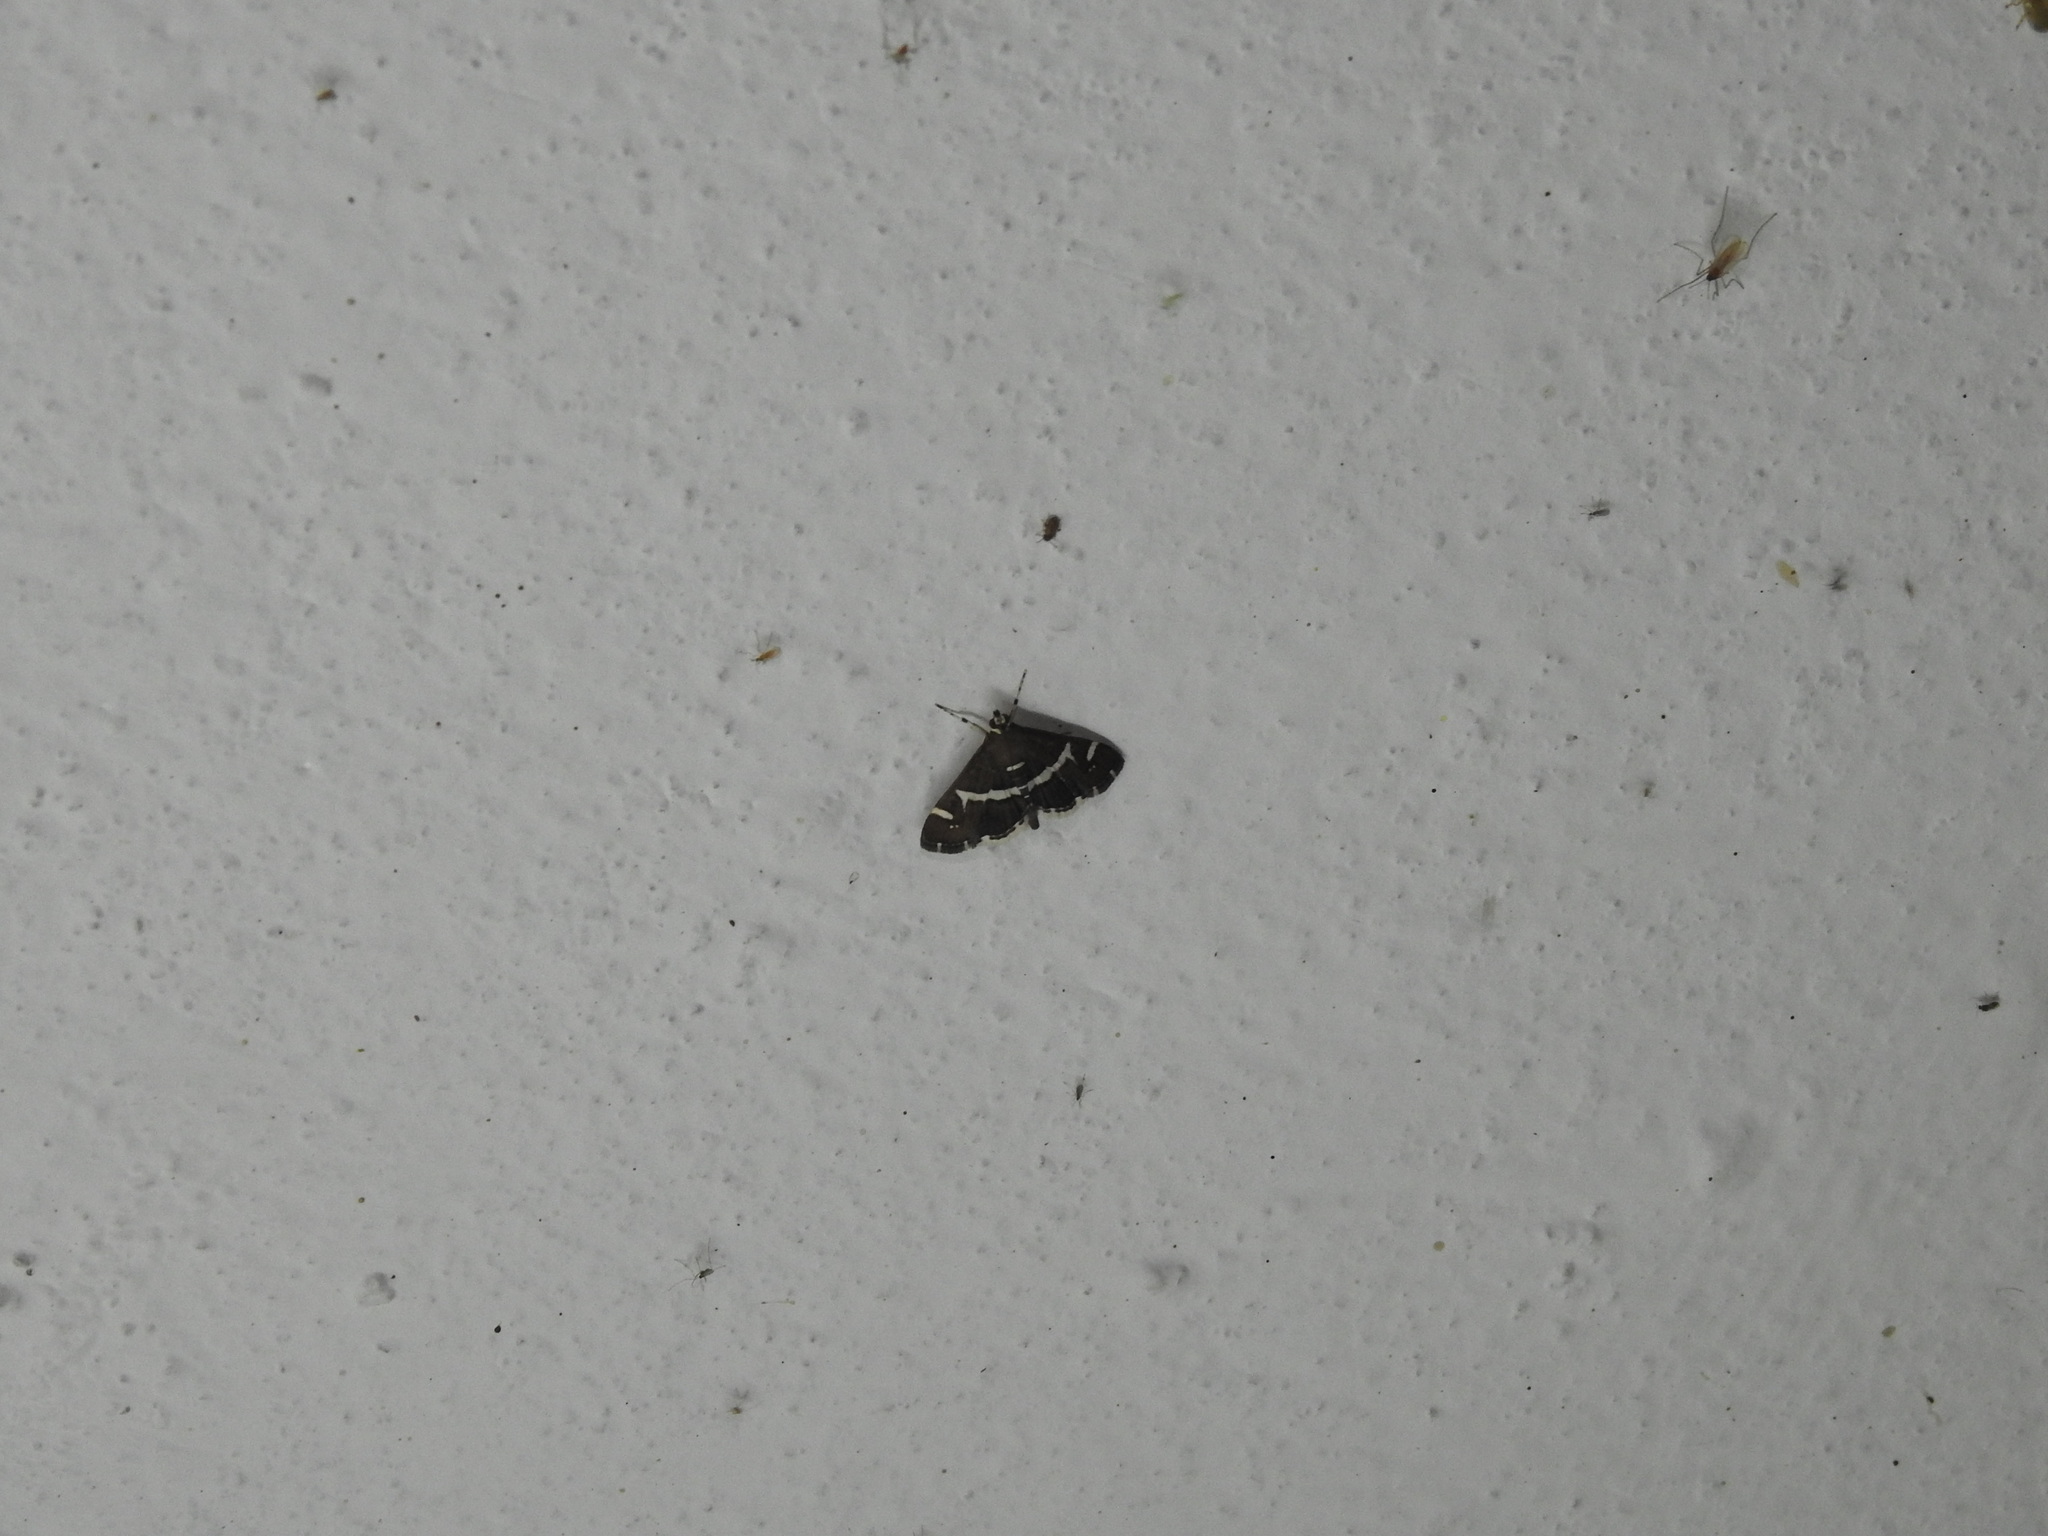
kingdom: Animalia
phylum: Arthropoda
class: Insecta
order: Lepidoptera
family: Crambidae
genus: Spoladea
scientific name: Spoladea recurvalis
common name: Beet webworm moth
